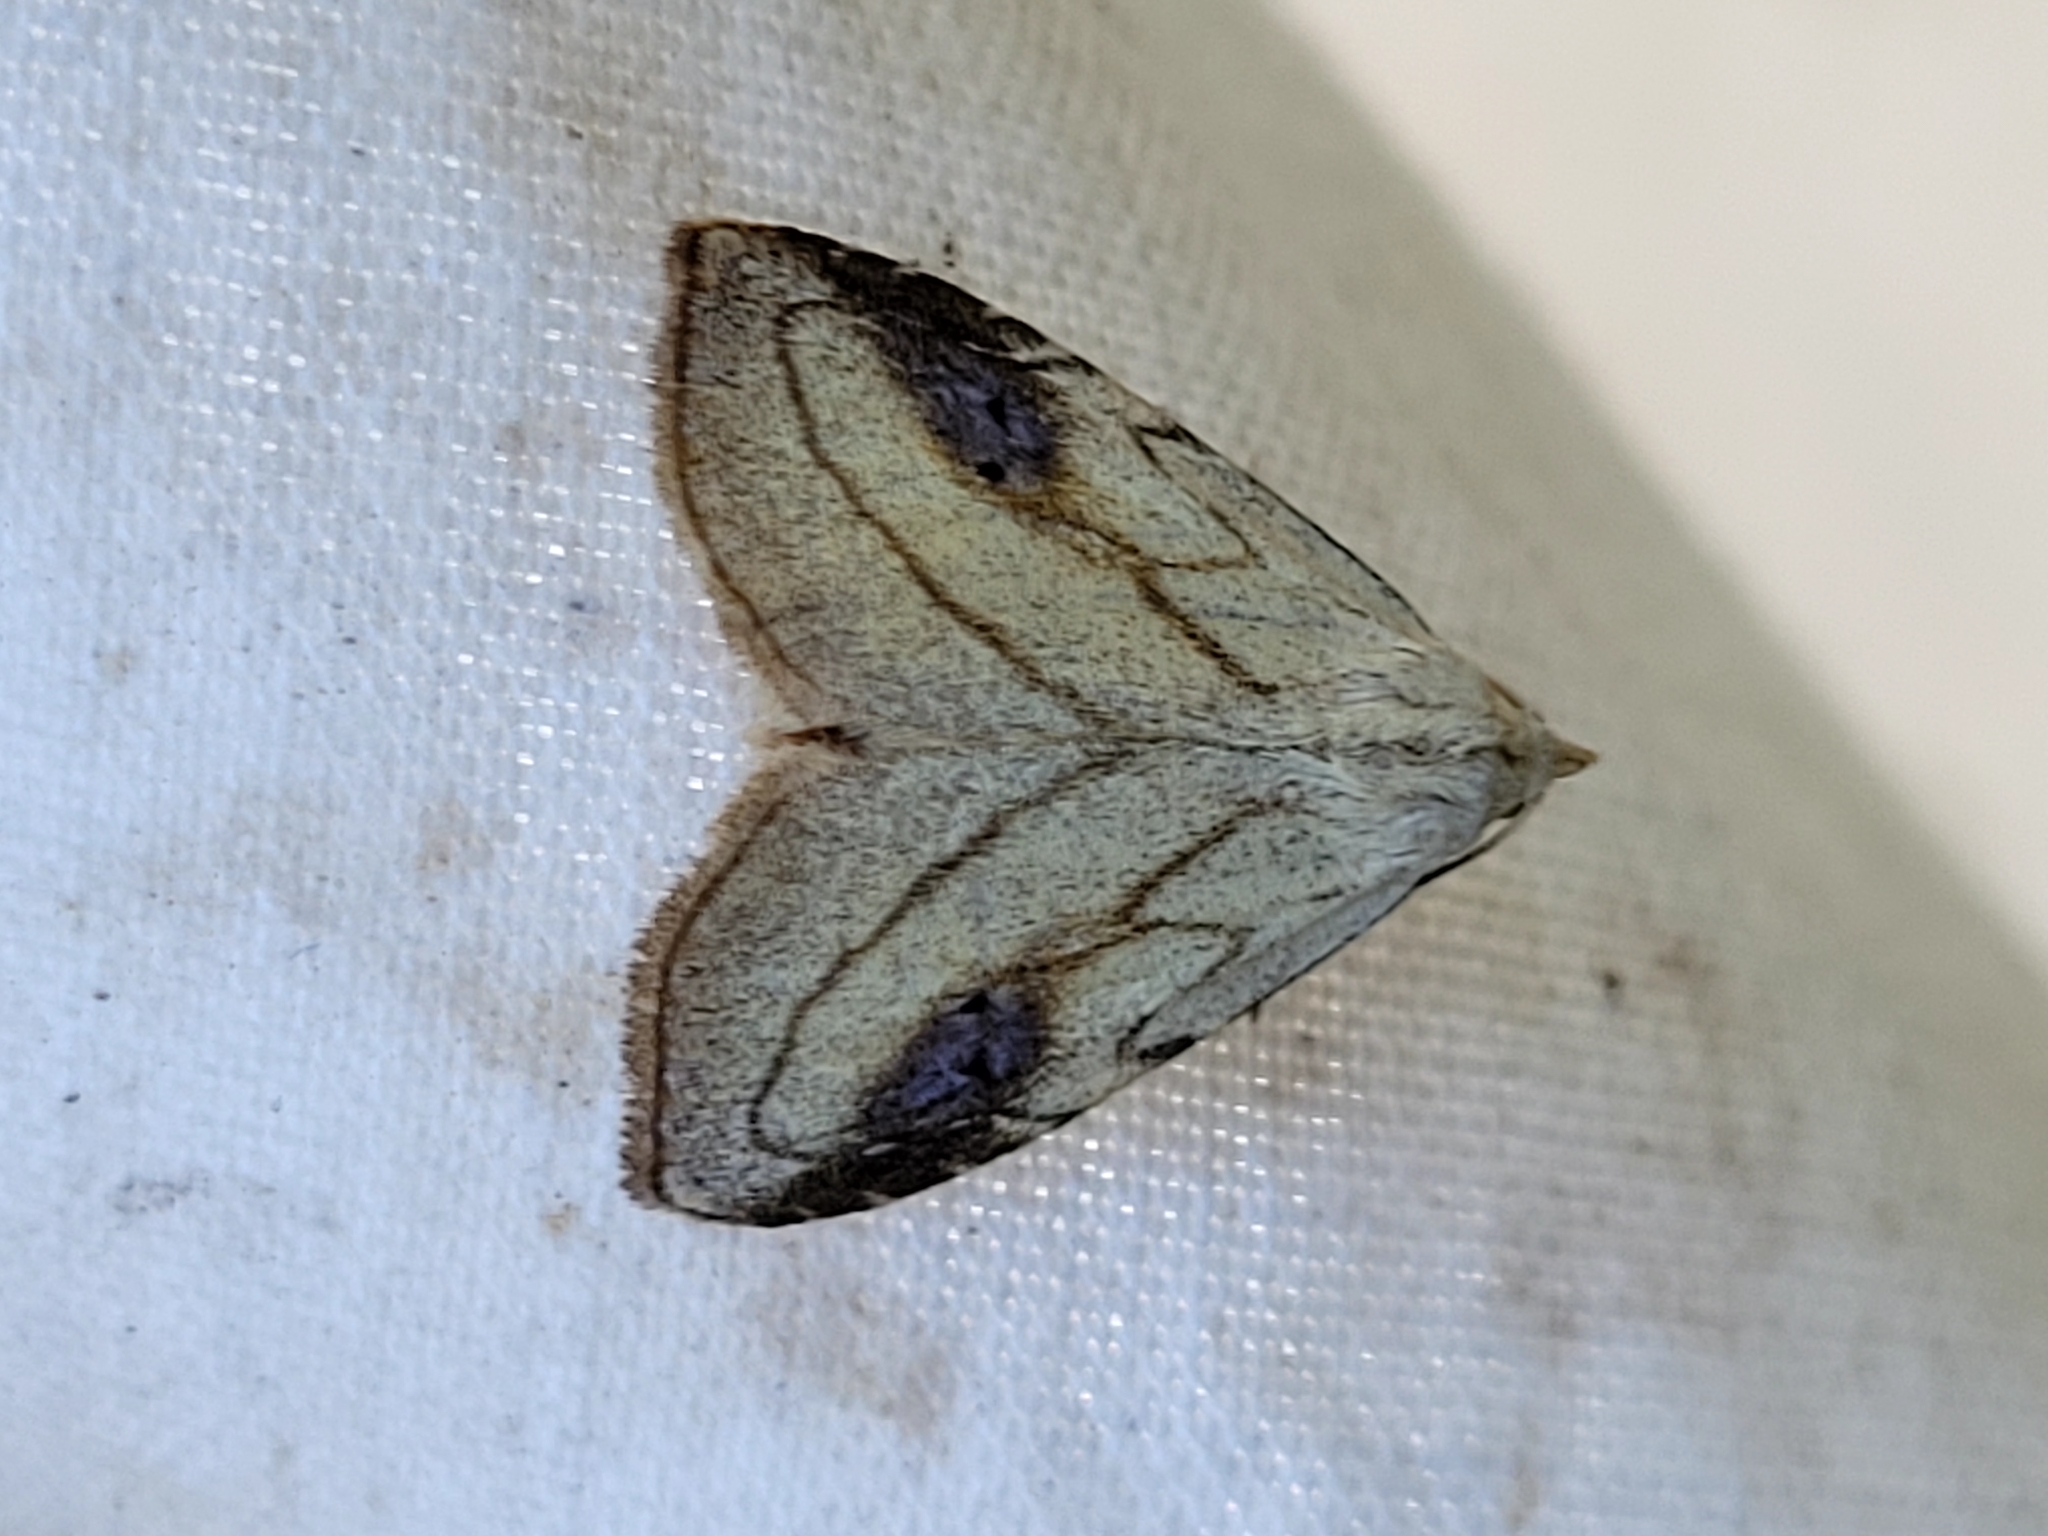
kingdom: Animalia
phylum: Arthropoda
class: Insecta
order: Lepidoptera
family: Erebidae
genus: Rivula
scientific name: Rivula propinqualis
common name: Spotted grass moth
